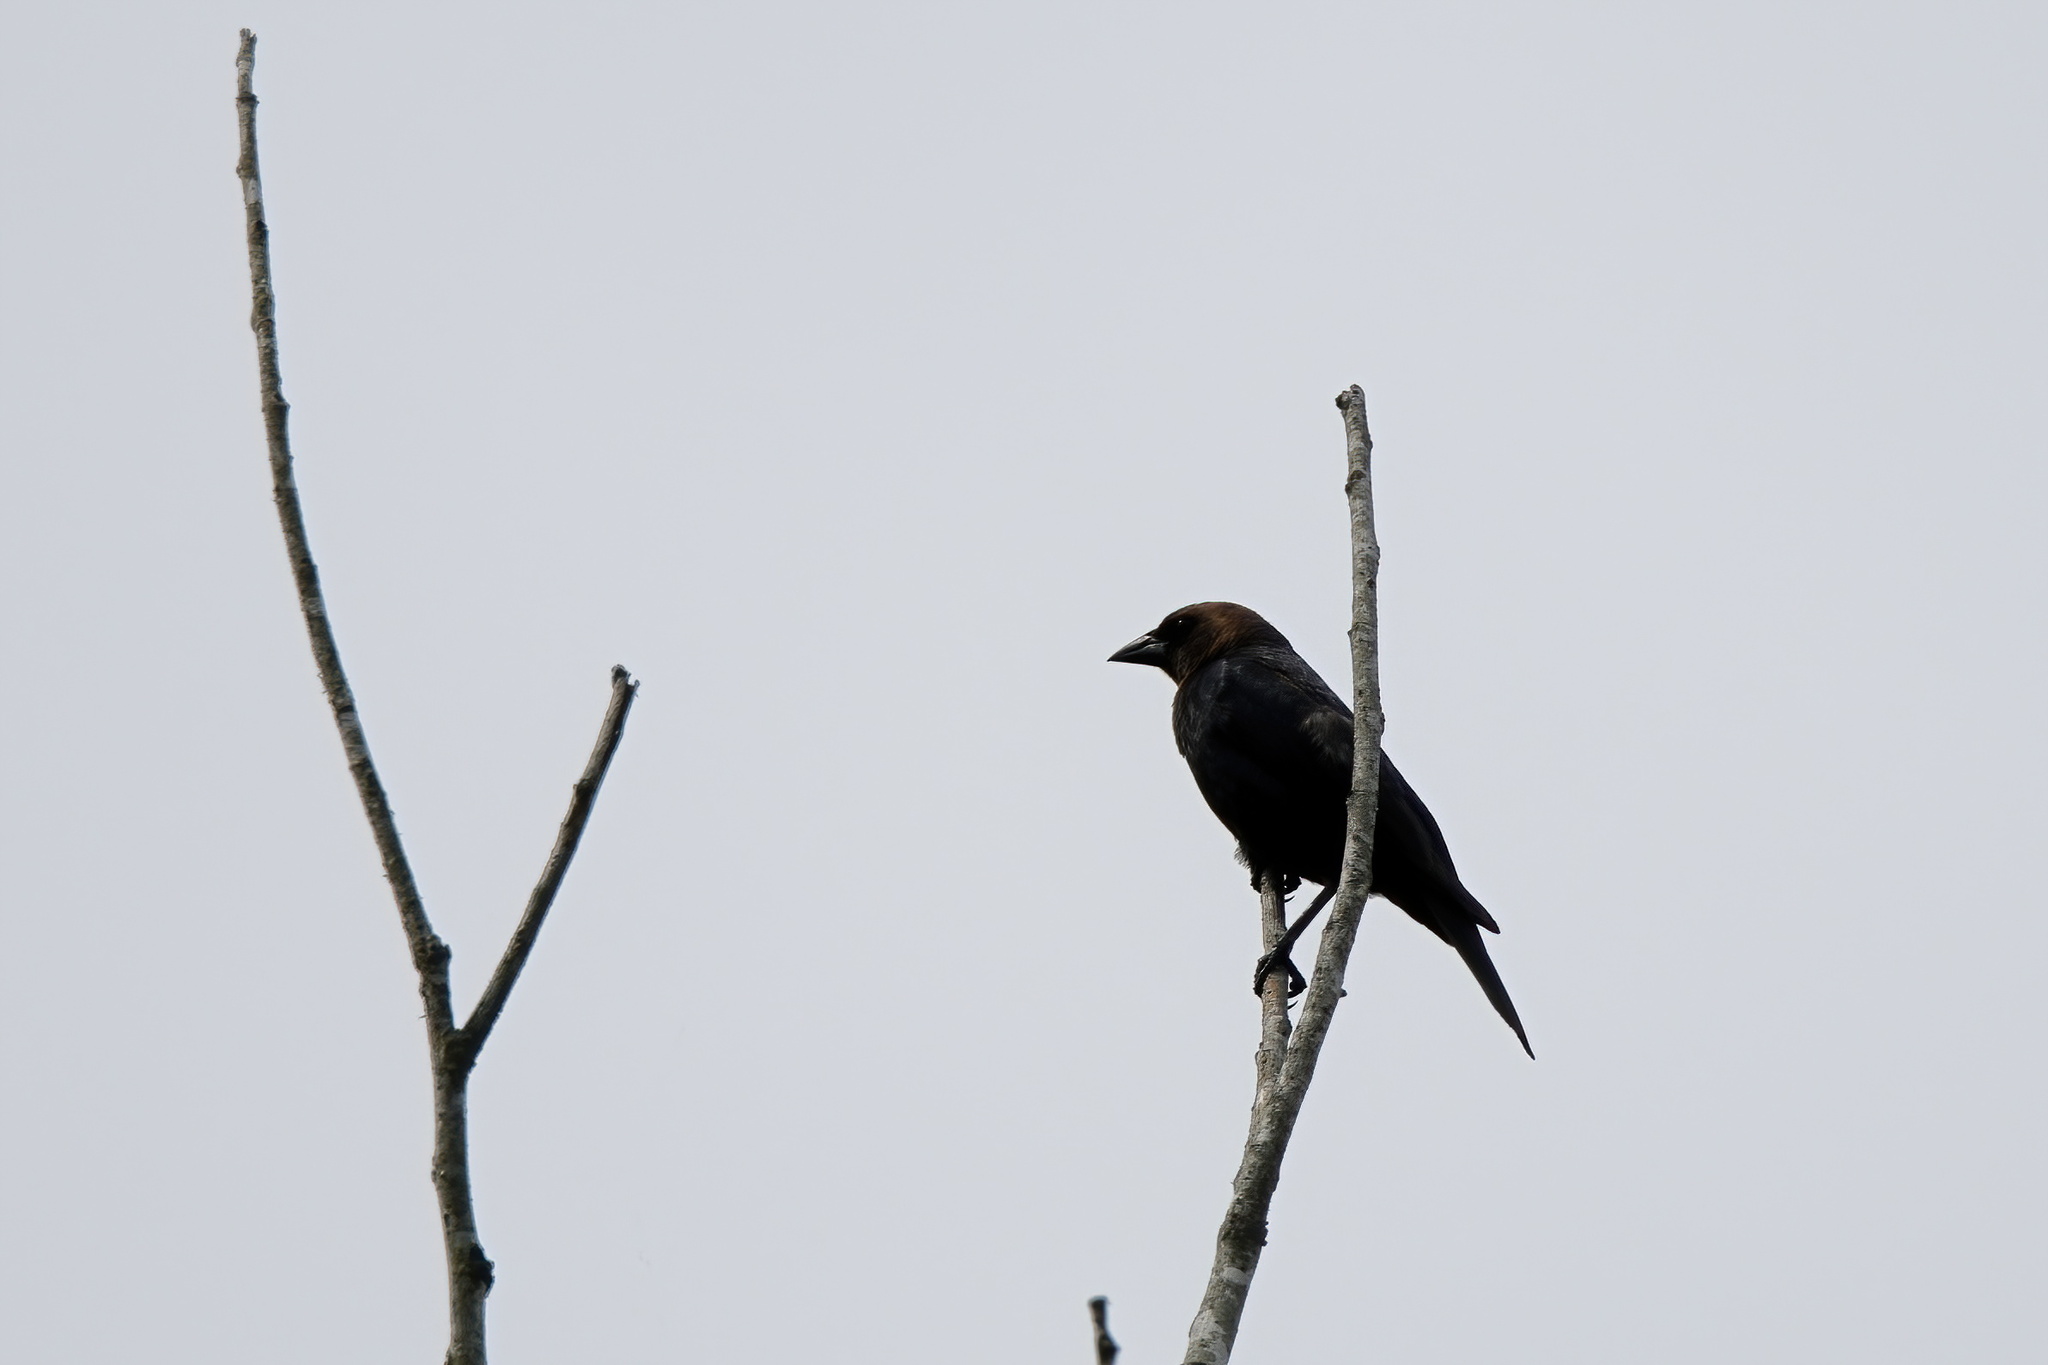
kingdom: Animalia
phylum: Chordata
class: Aves
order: Passeriformes
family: Icteridae
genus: Molothrus
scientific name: Molothrus ater
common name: Brown-headed cowbird
